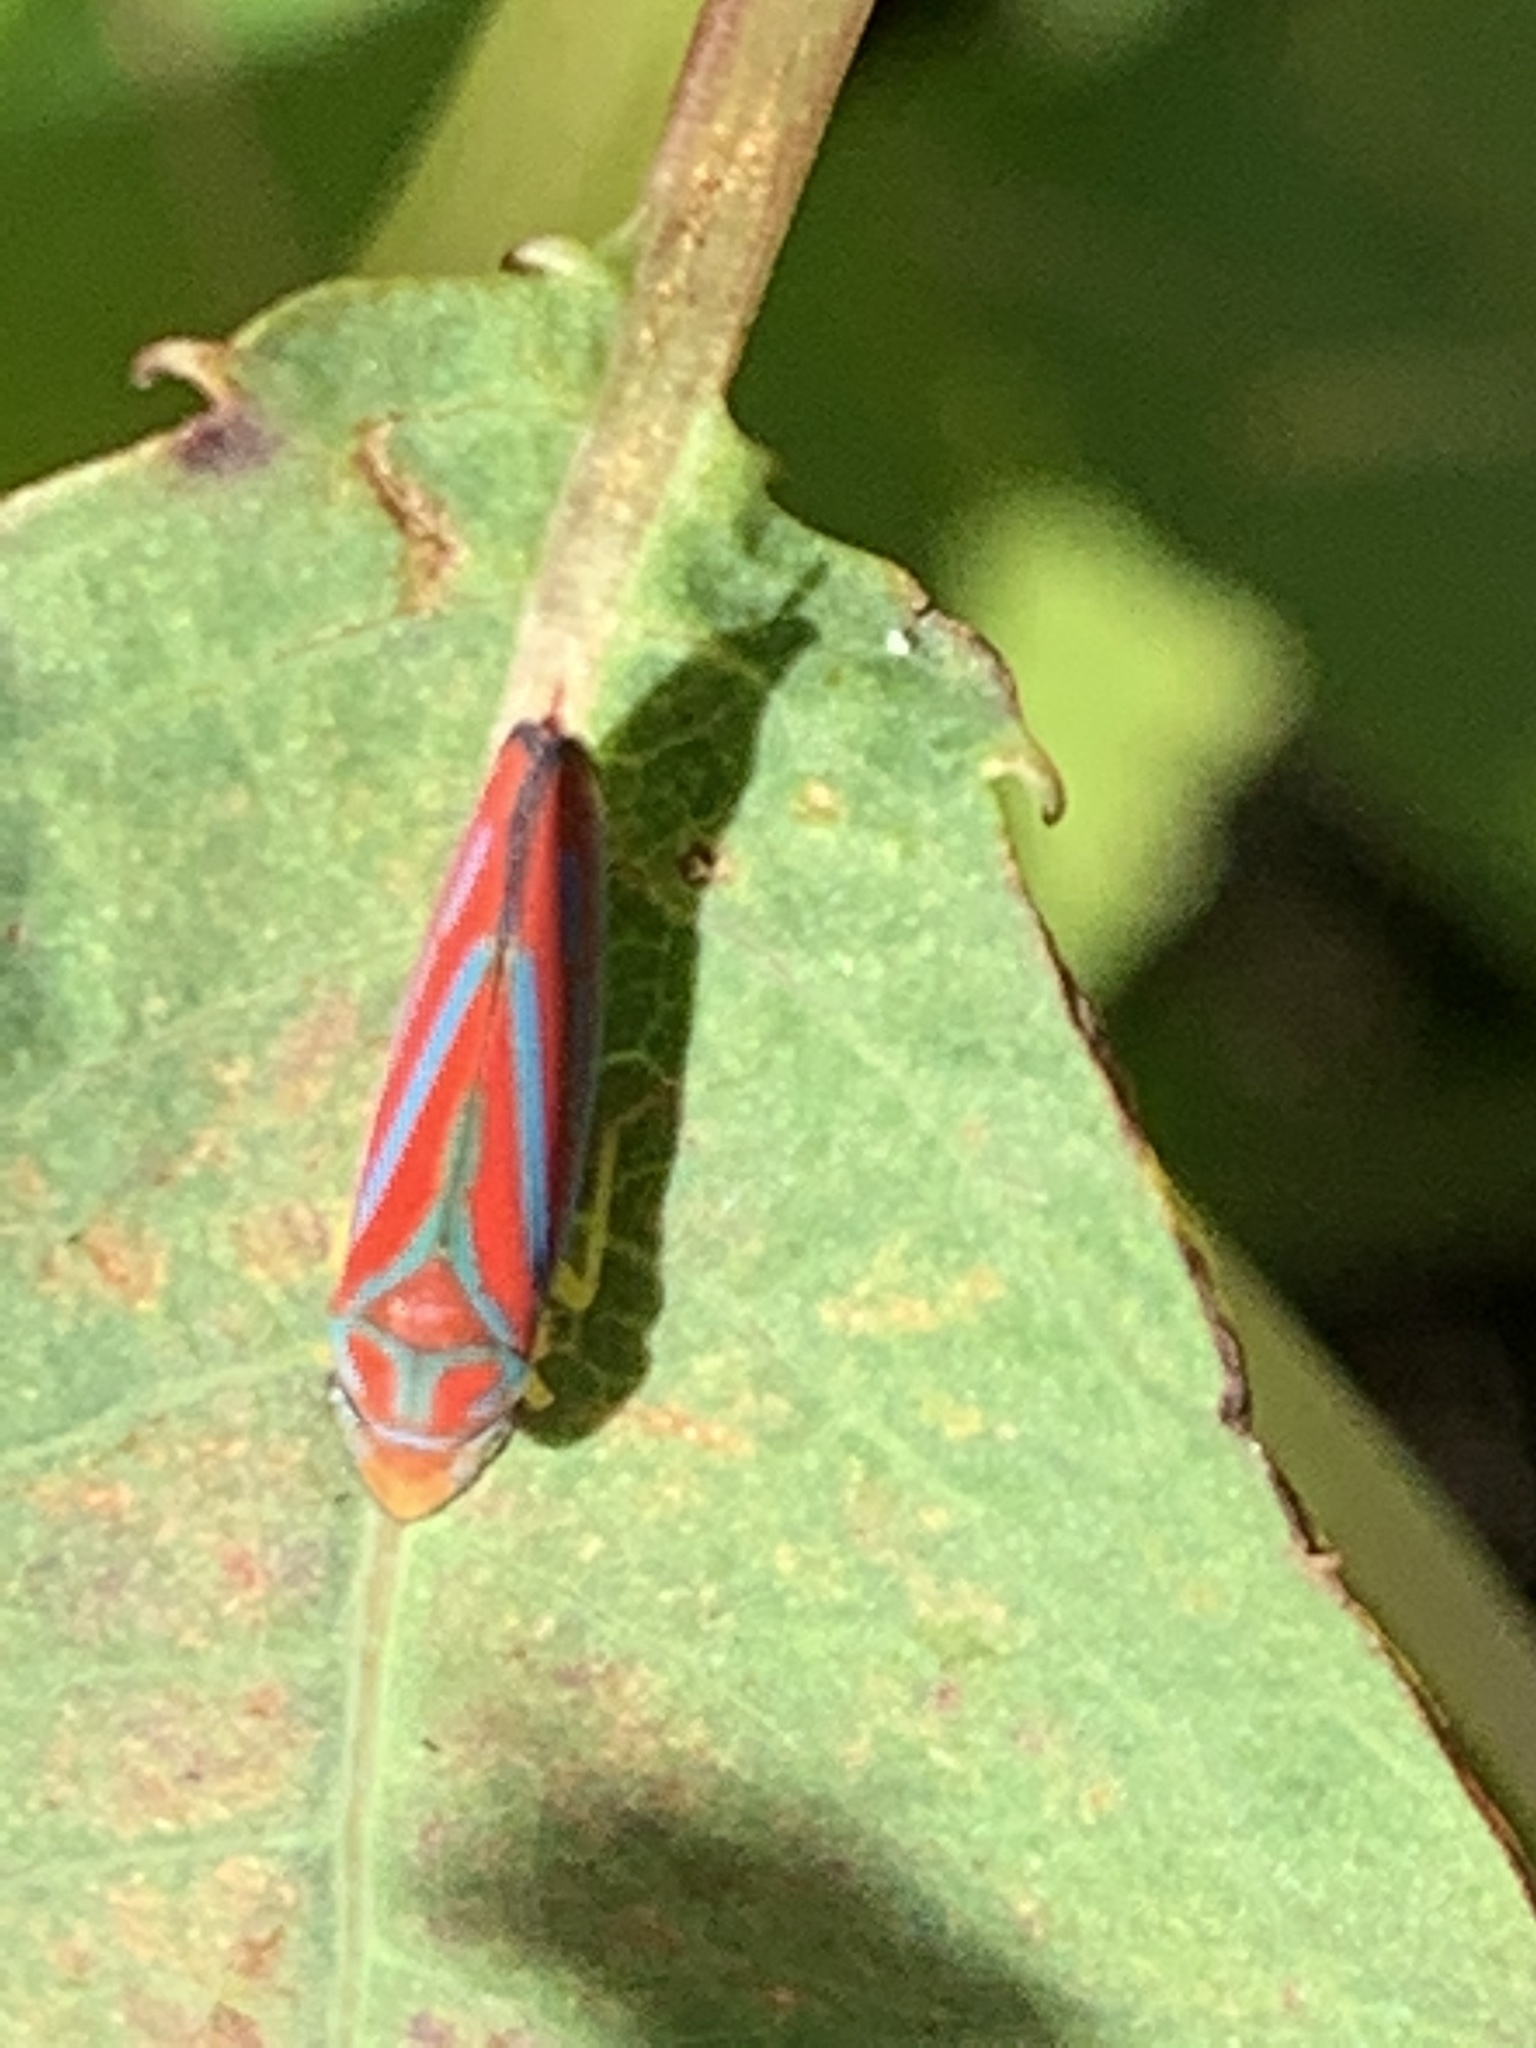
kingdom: Animalia
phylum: Arthropoda
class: Insecta
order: Hemiptera
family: Cicadellidae
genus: Graphocephala
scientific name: Graphocephala coccinea
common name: Candy-striped leafhopper
